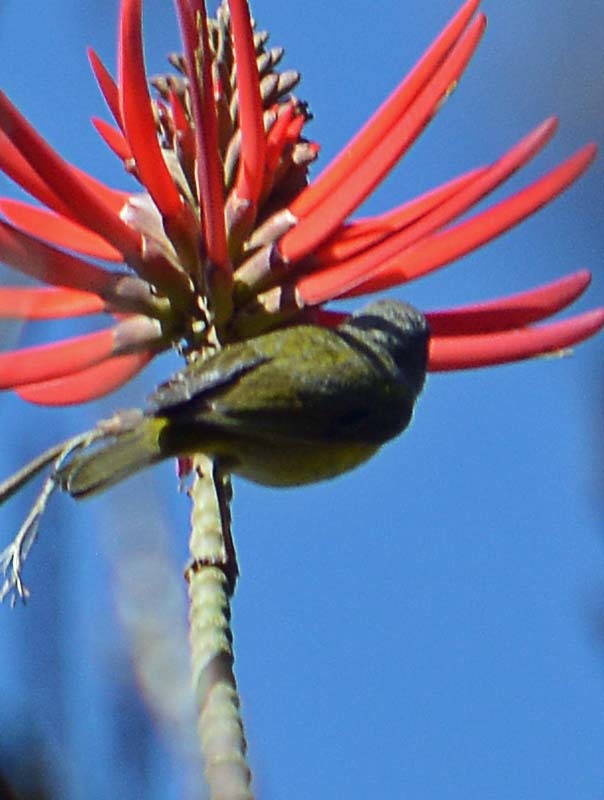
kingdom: Animalia
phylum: Chordata
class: Aves
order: Passeriformes
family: Thraupidae
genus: Diglossa
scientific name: Diglossa baritula
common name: Cinnamon-bellied flowerpiercer
